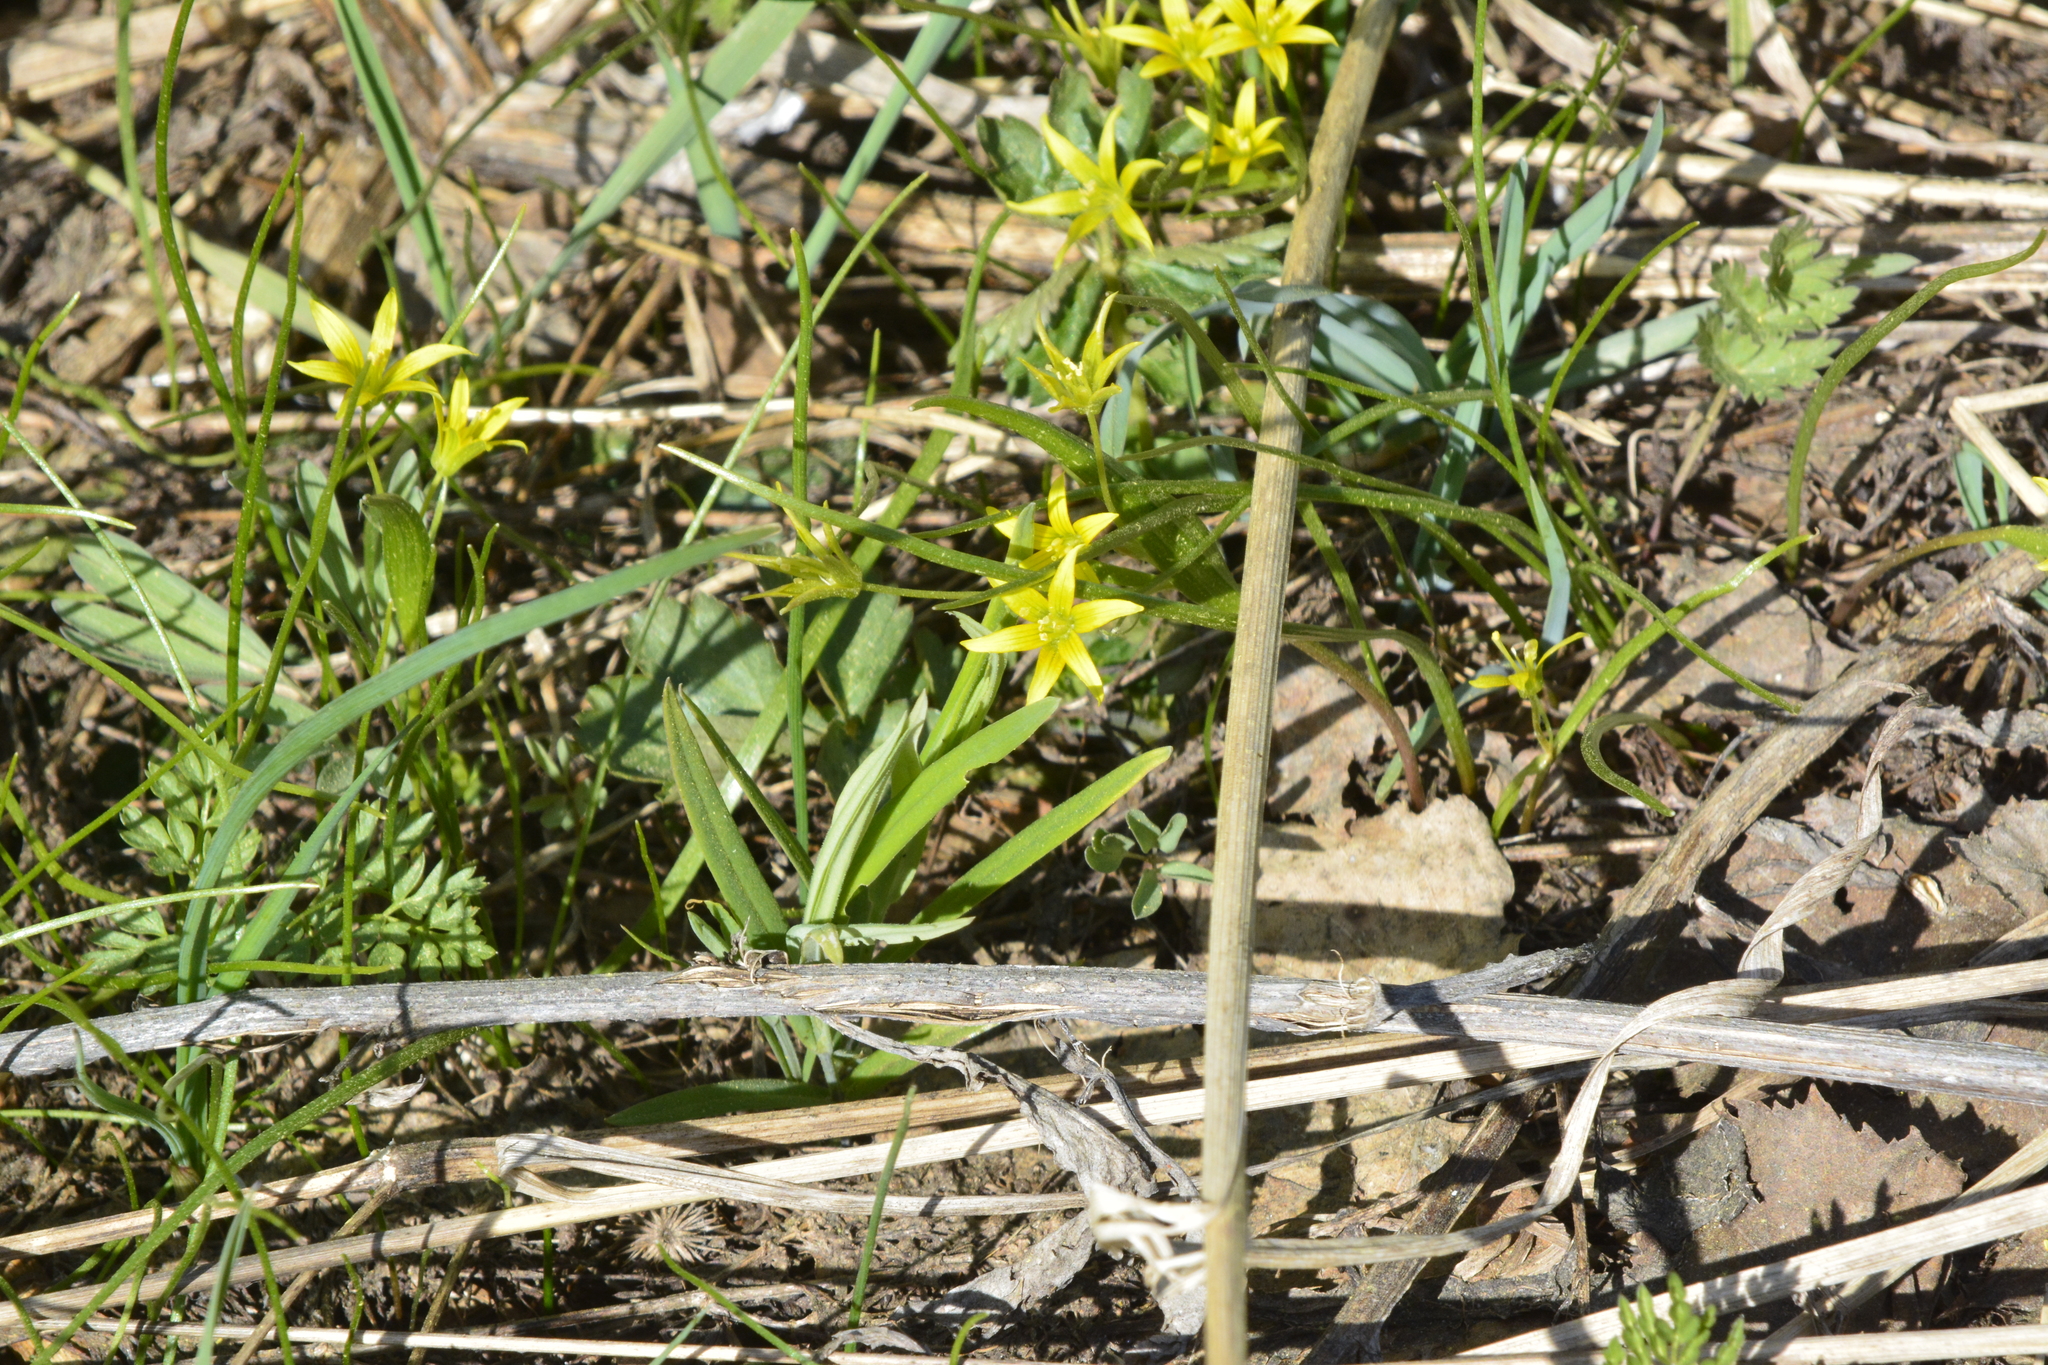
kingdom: Plantae
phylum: Tracheophyta
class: Liliopsida
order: Liliales
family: Liliaceae
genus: Gagea
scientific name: Gagea minima
